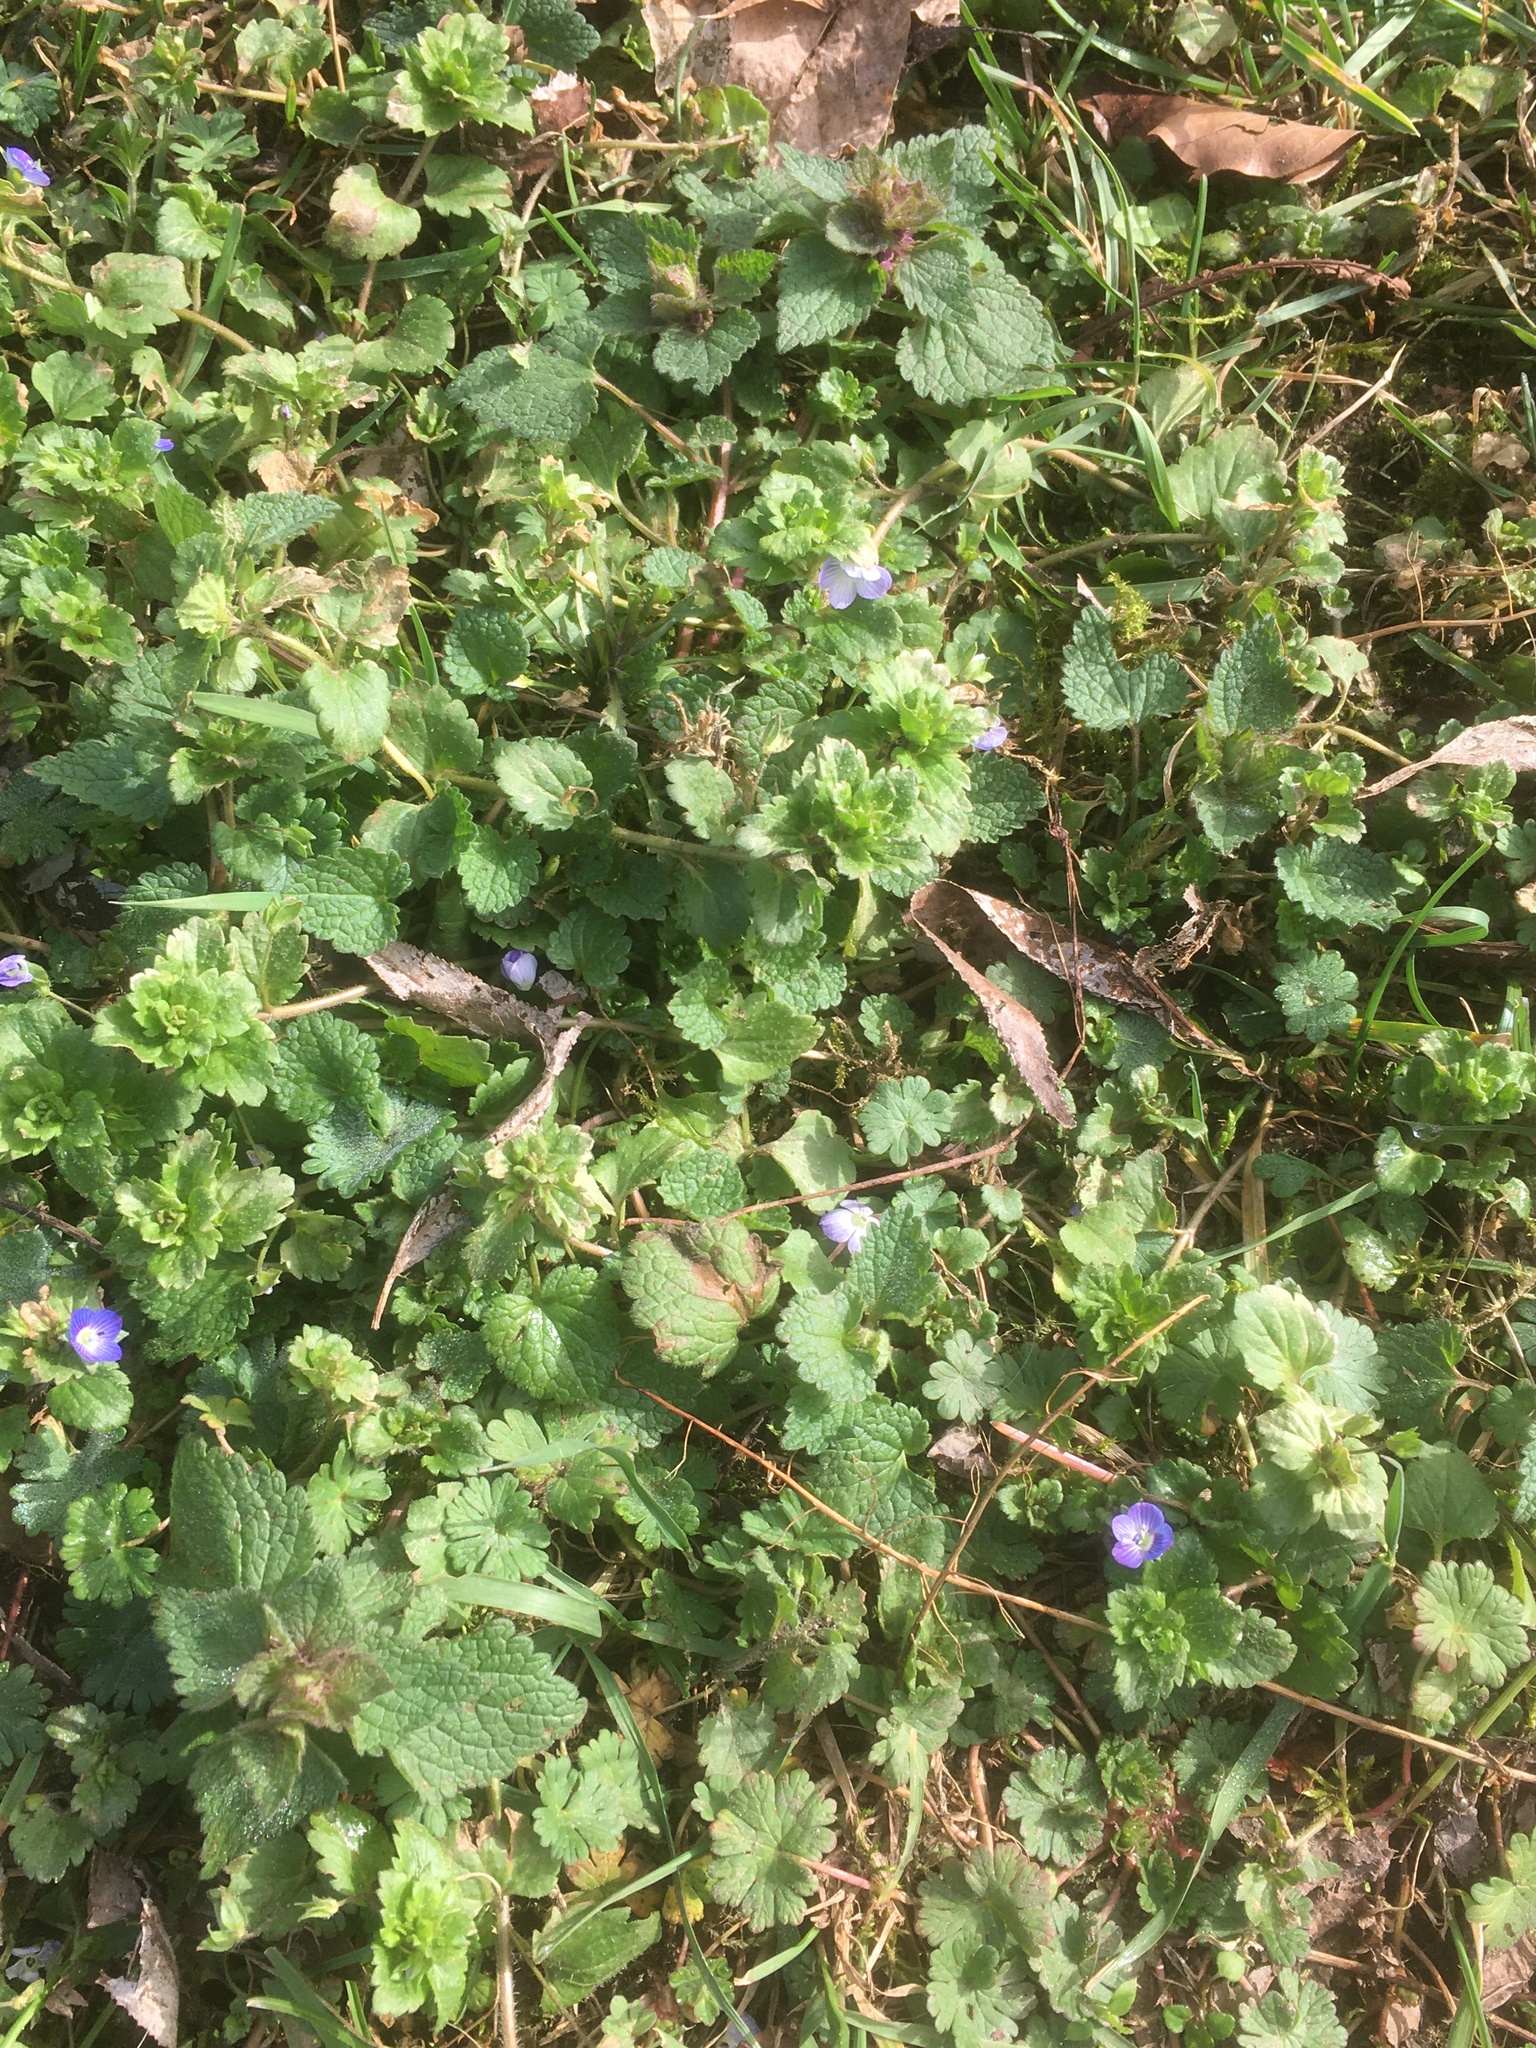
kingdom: Plantae
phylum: Tracheophyta
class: Magnoliopsida
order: Lamiales
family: Plantaginaceae
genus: Veronica
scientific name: Veronica persica
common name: Common field-speedwell
